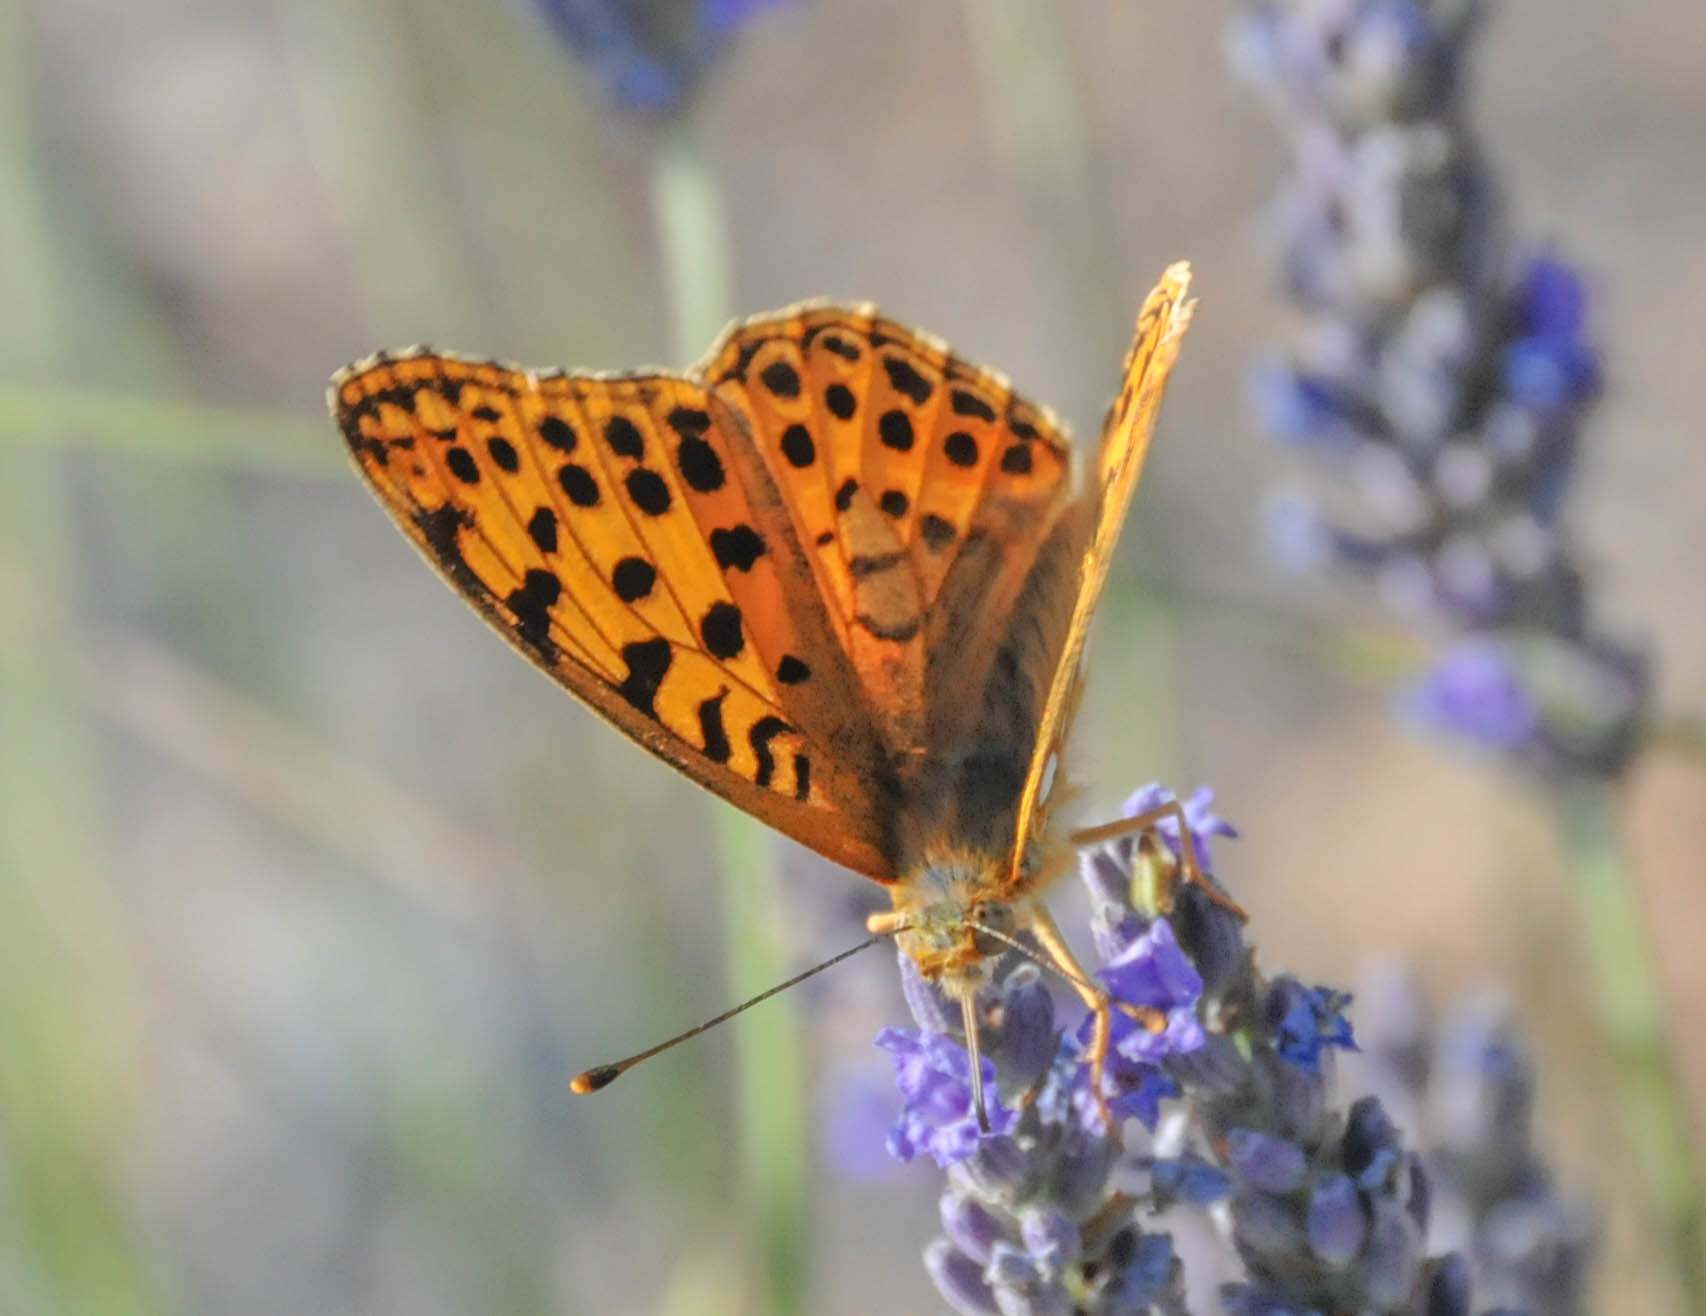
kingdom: Animalia
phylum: Arthropoda
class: Insecta
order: Lepidoptera
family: Nymphalidae
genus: Issoria
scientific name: Issoria lathonia
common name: Queen of spain fritillary
